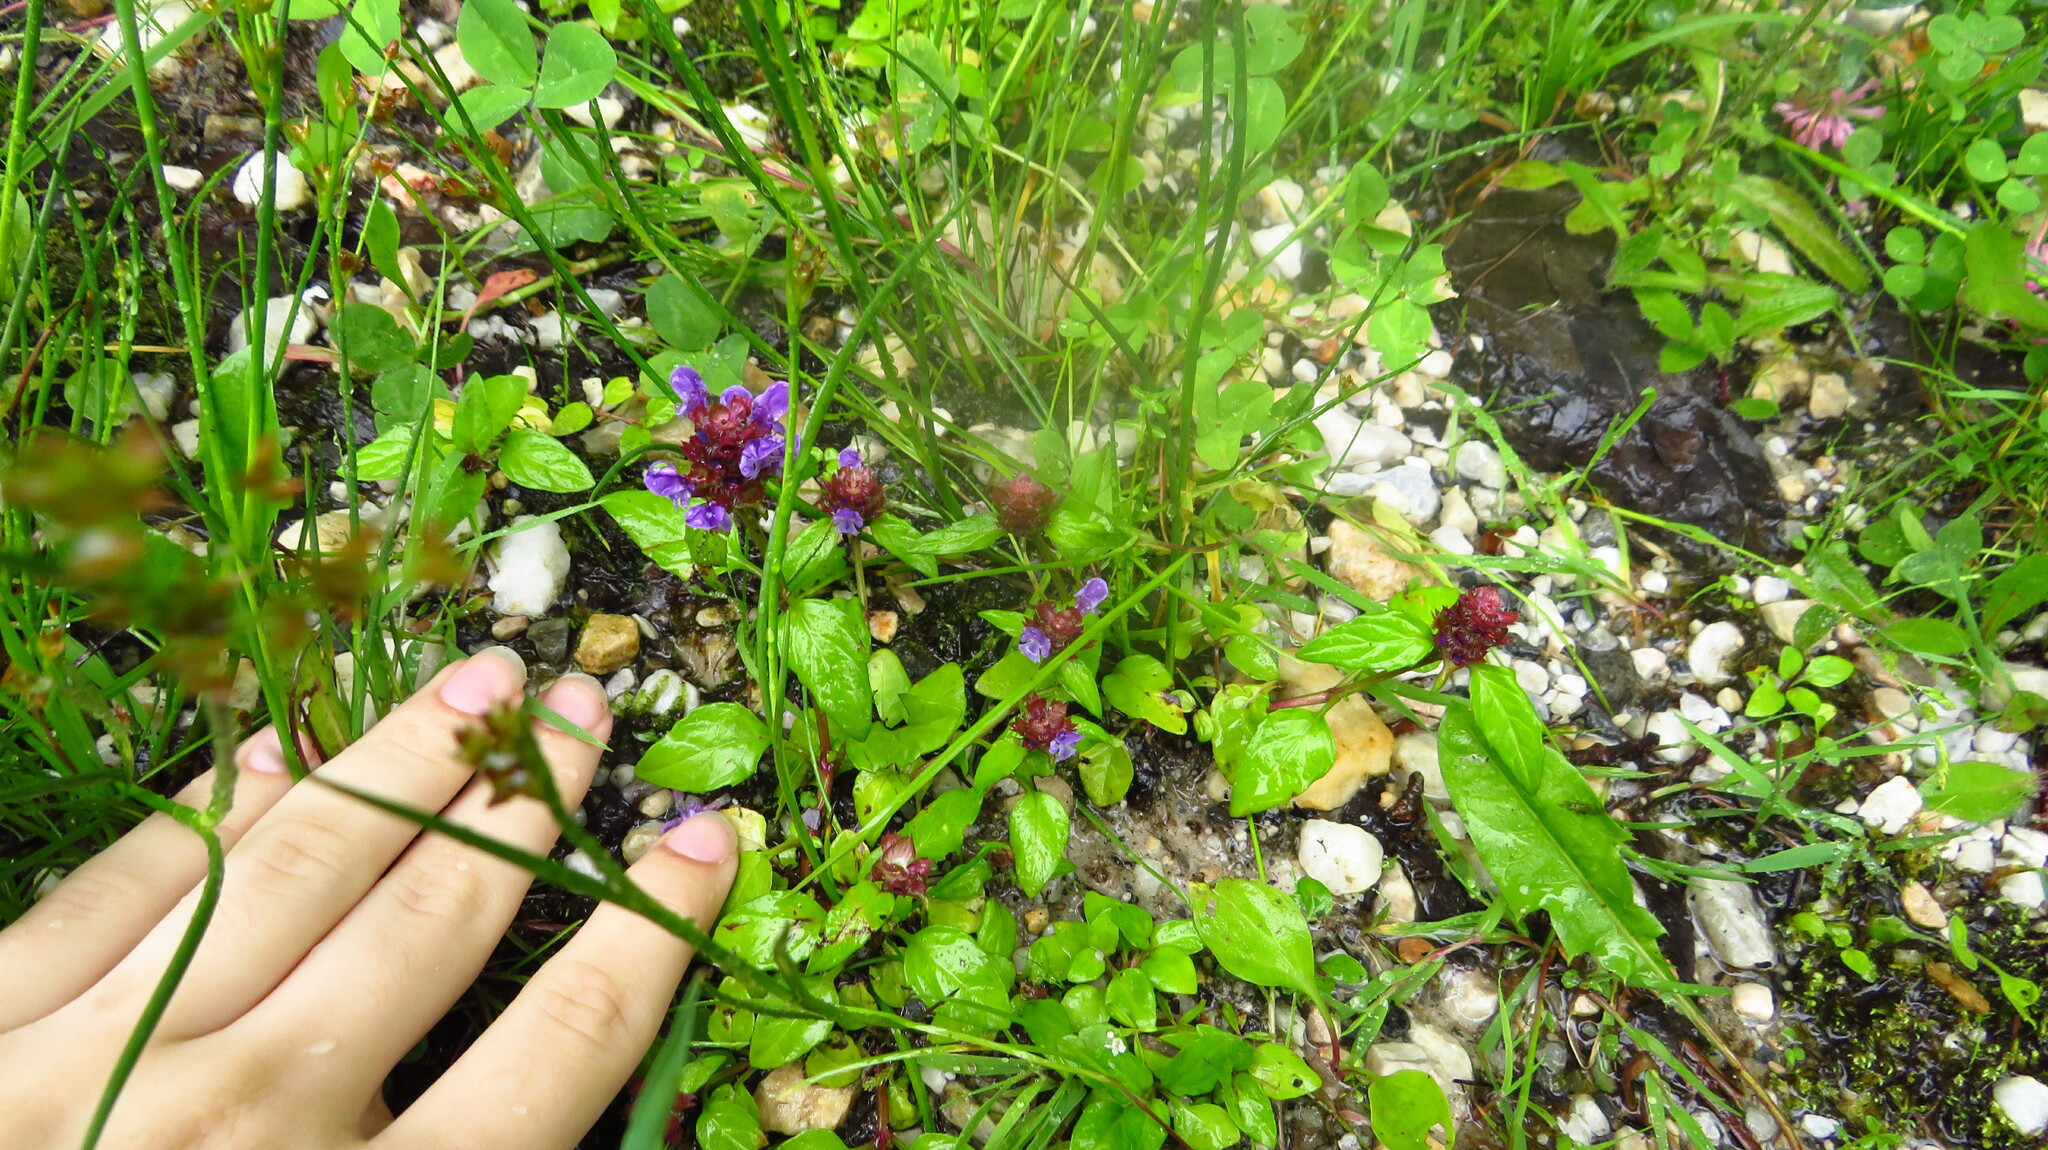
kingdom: Plantae
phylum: Tracheophyta
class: Magnoliopsida
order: Lamiales
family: Lamiaceae
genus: Prunella
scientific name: Prunella vulgaris
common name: Heal-all
